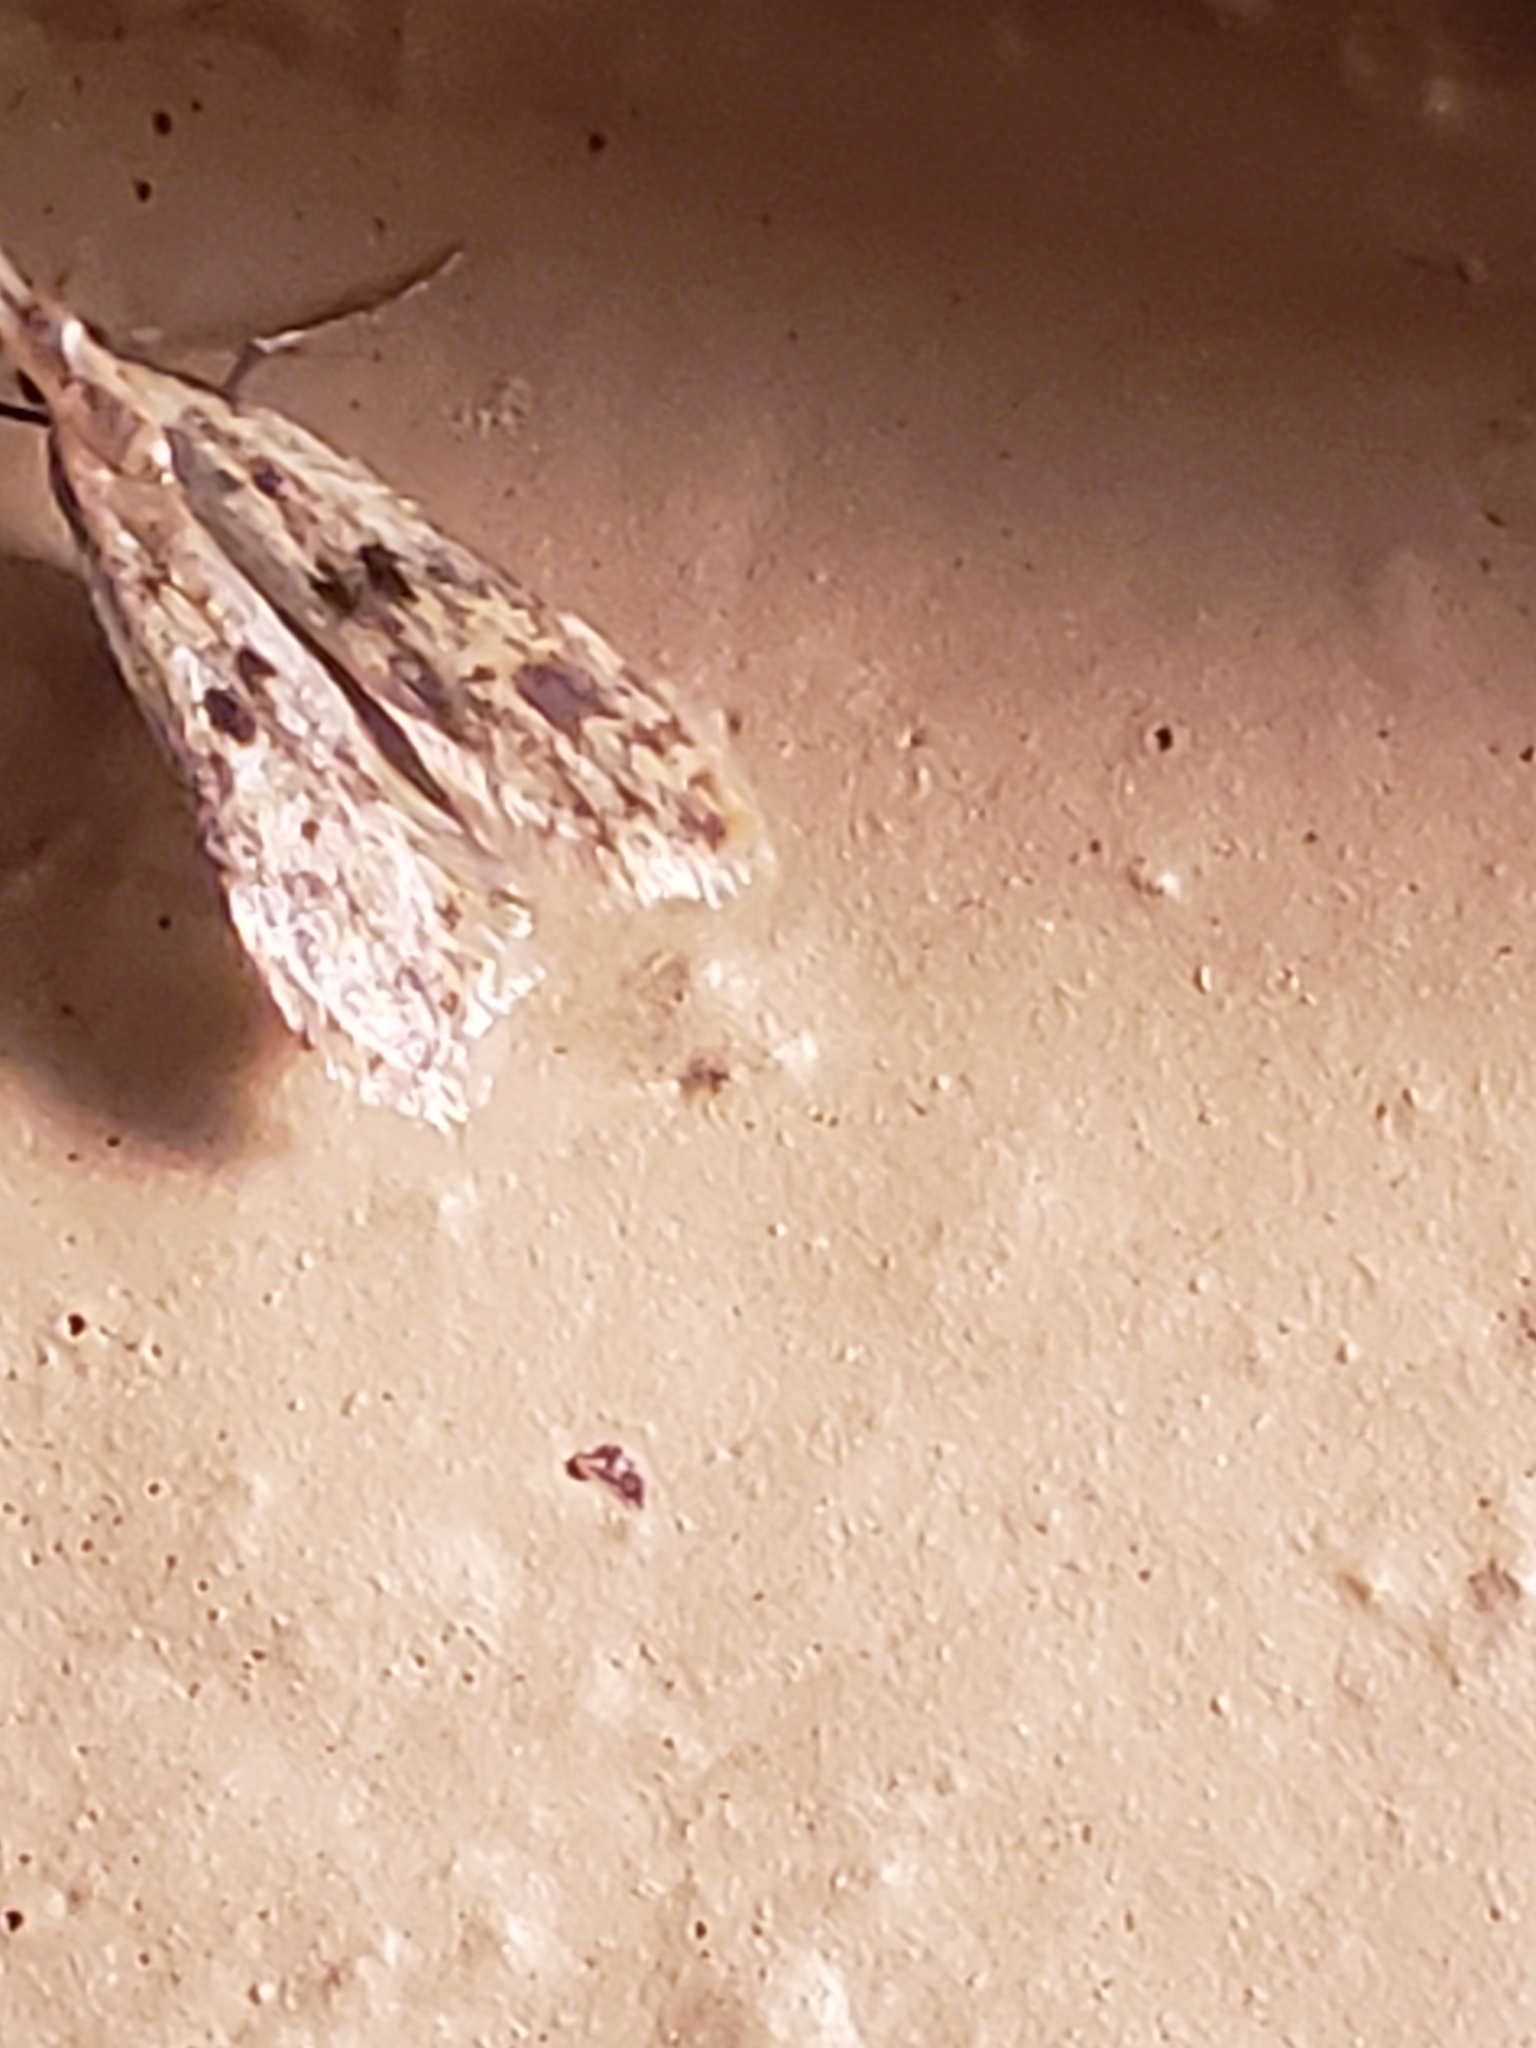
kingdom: Animalia
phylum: Arthropoda
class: Insecta
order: Lepidoptera
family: Gelechiidae
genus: Dichomeris
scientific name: Dichomeris punctipennella
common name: Many-spotted dichomeris moth
